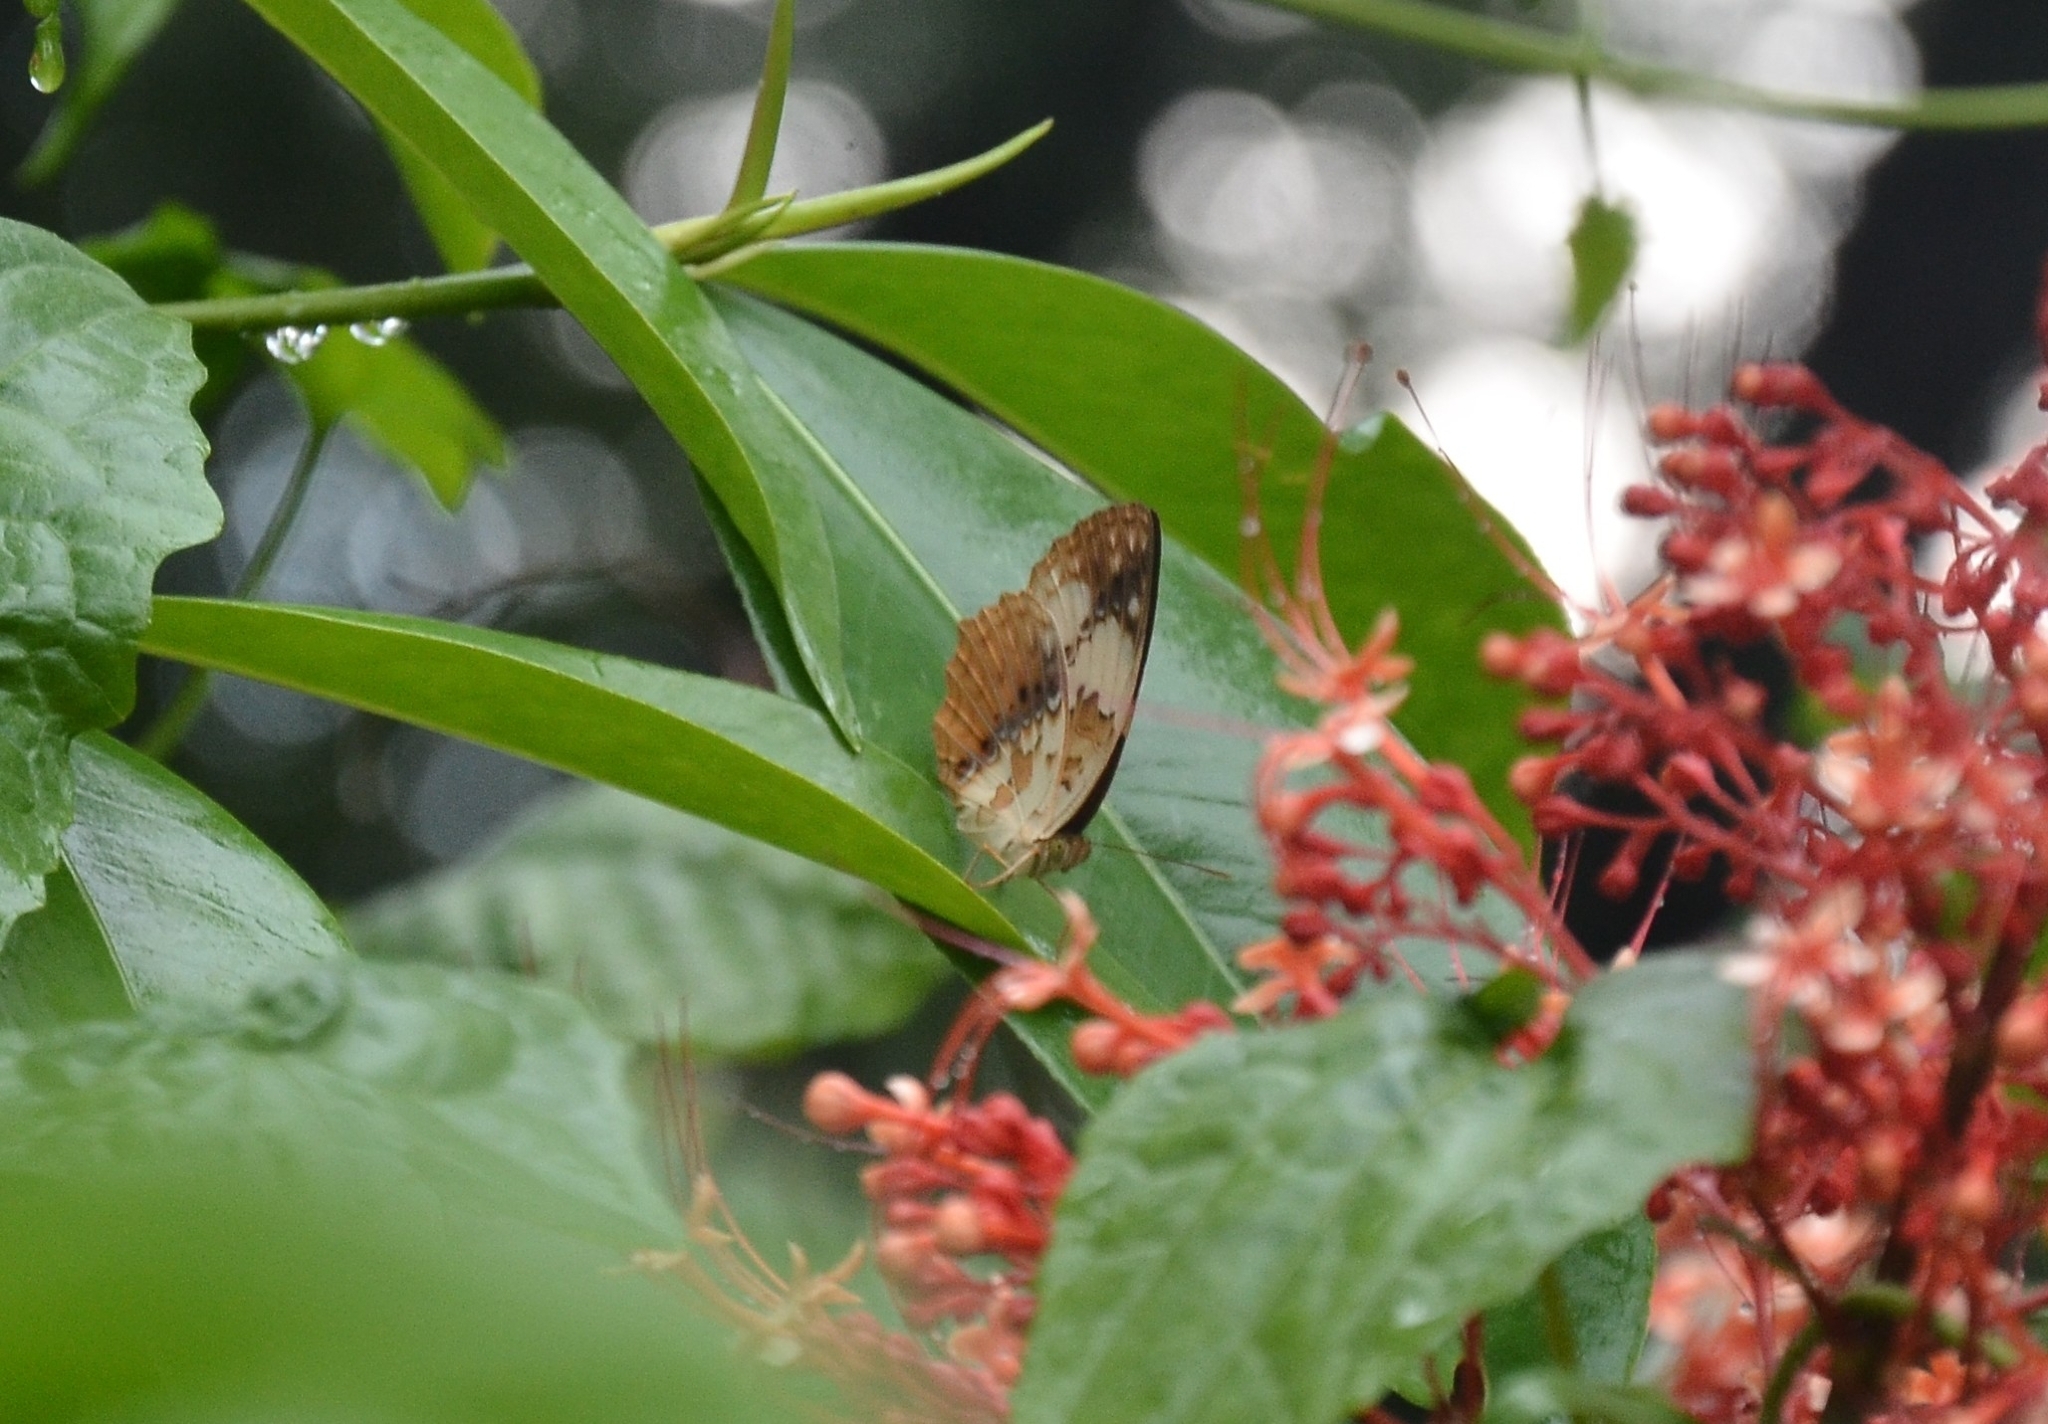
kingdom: Animalia
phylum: Arthropoda
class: Insecta
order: Lepidoptera
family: Nymphalidae
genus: Cupha
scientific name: Cupha erymanthis
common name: Rustic
